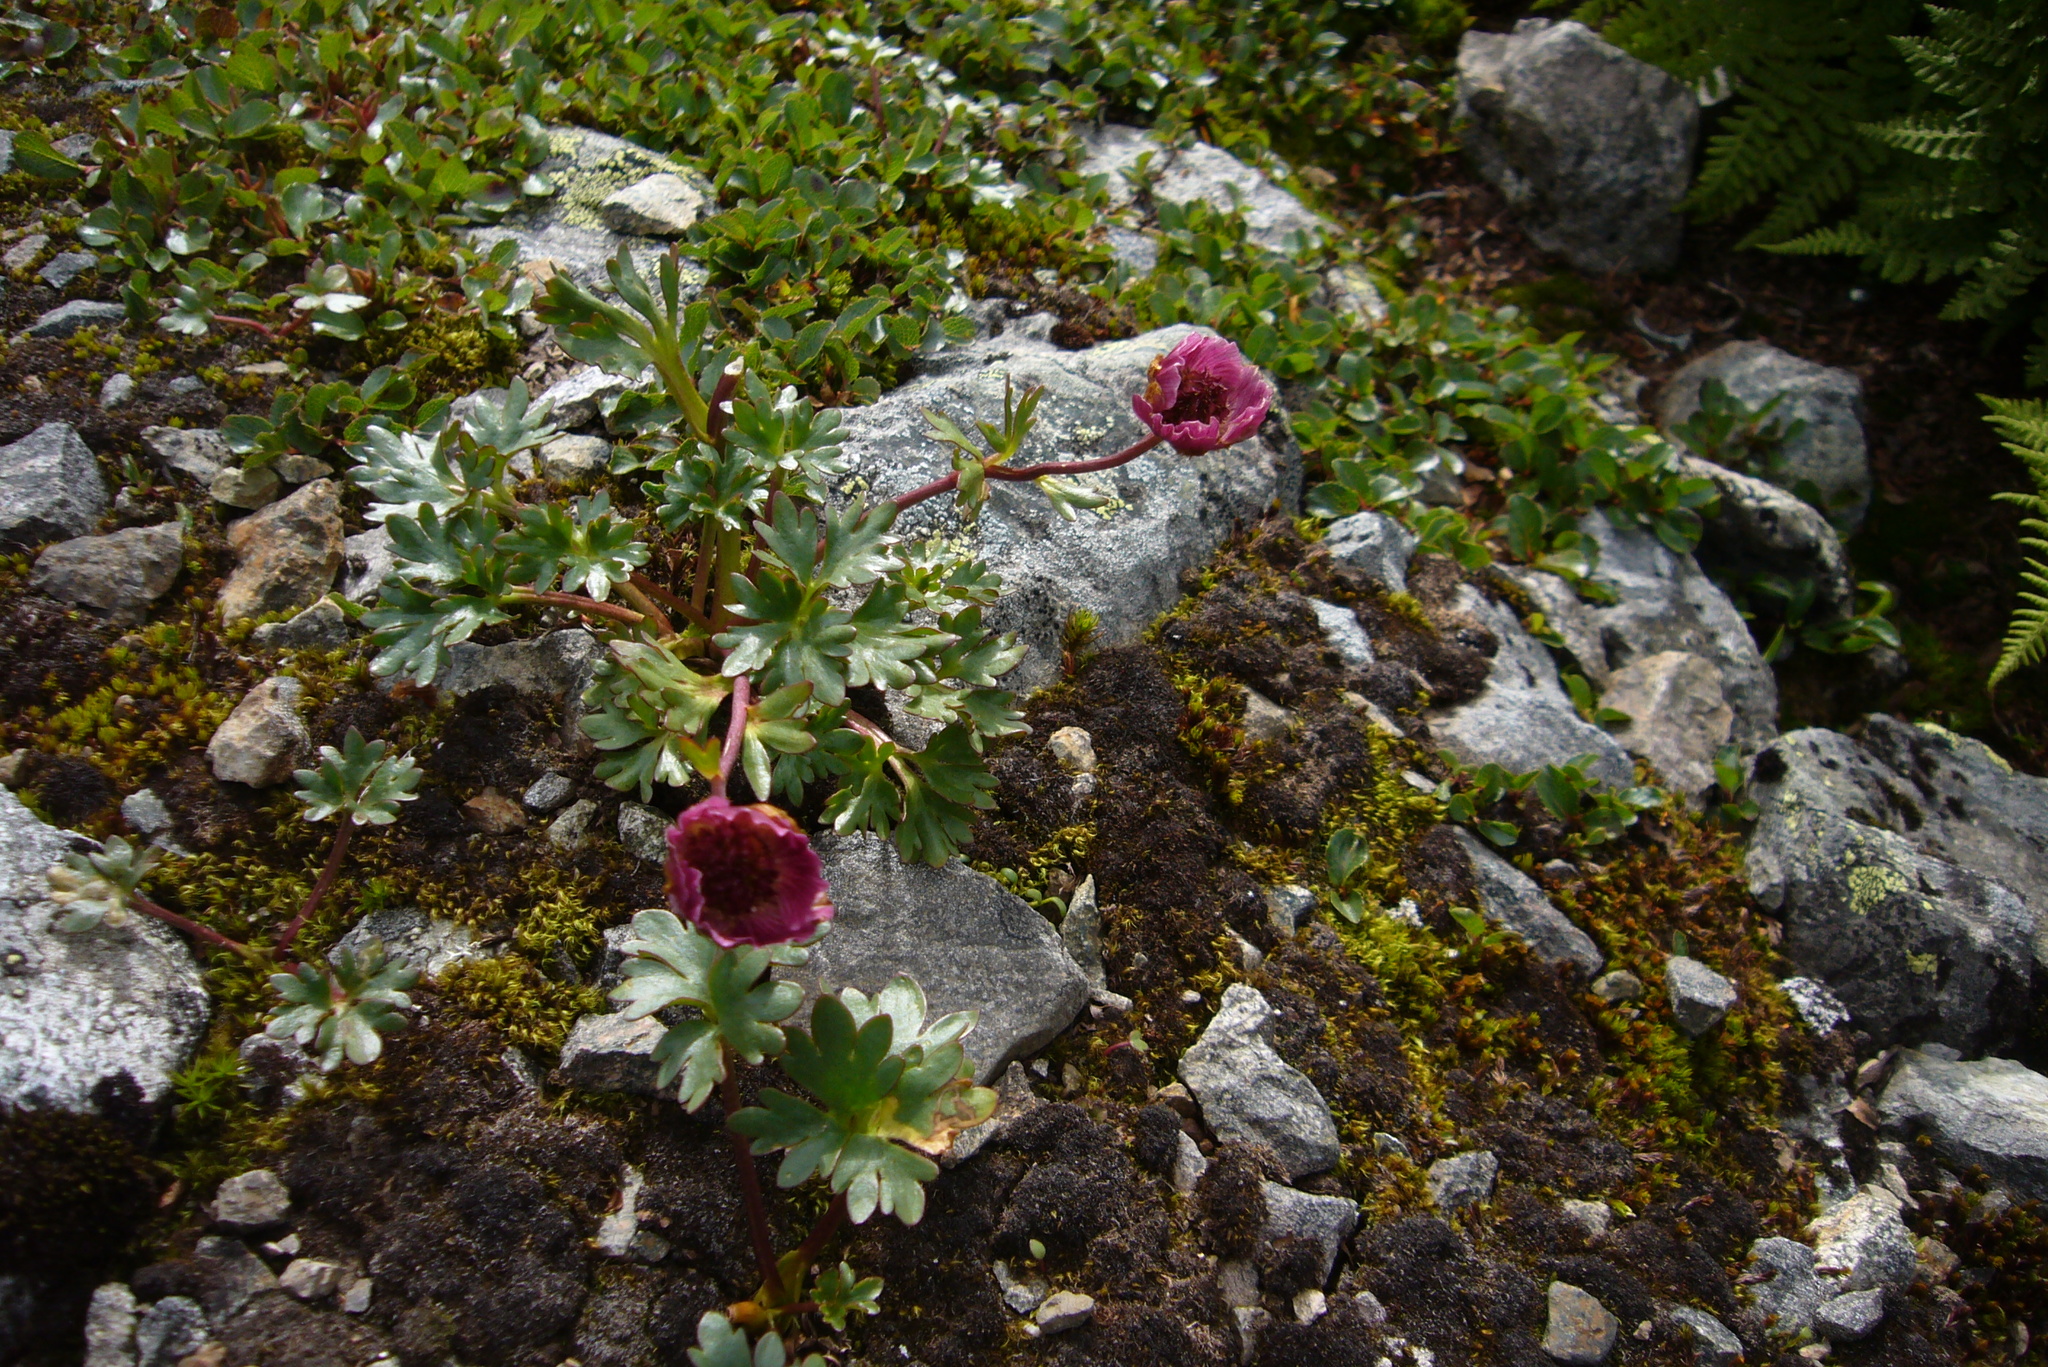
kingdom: Plantae
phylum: Tracheophyta
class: Magnoliopsida
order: Ranunculales
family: Ranunculaceae
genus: Ranunculus
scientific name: Ranunculus glacialis
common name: Glacier buttercup
